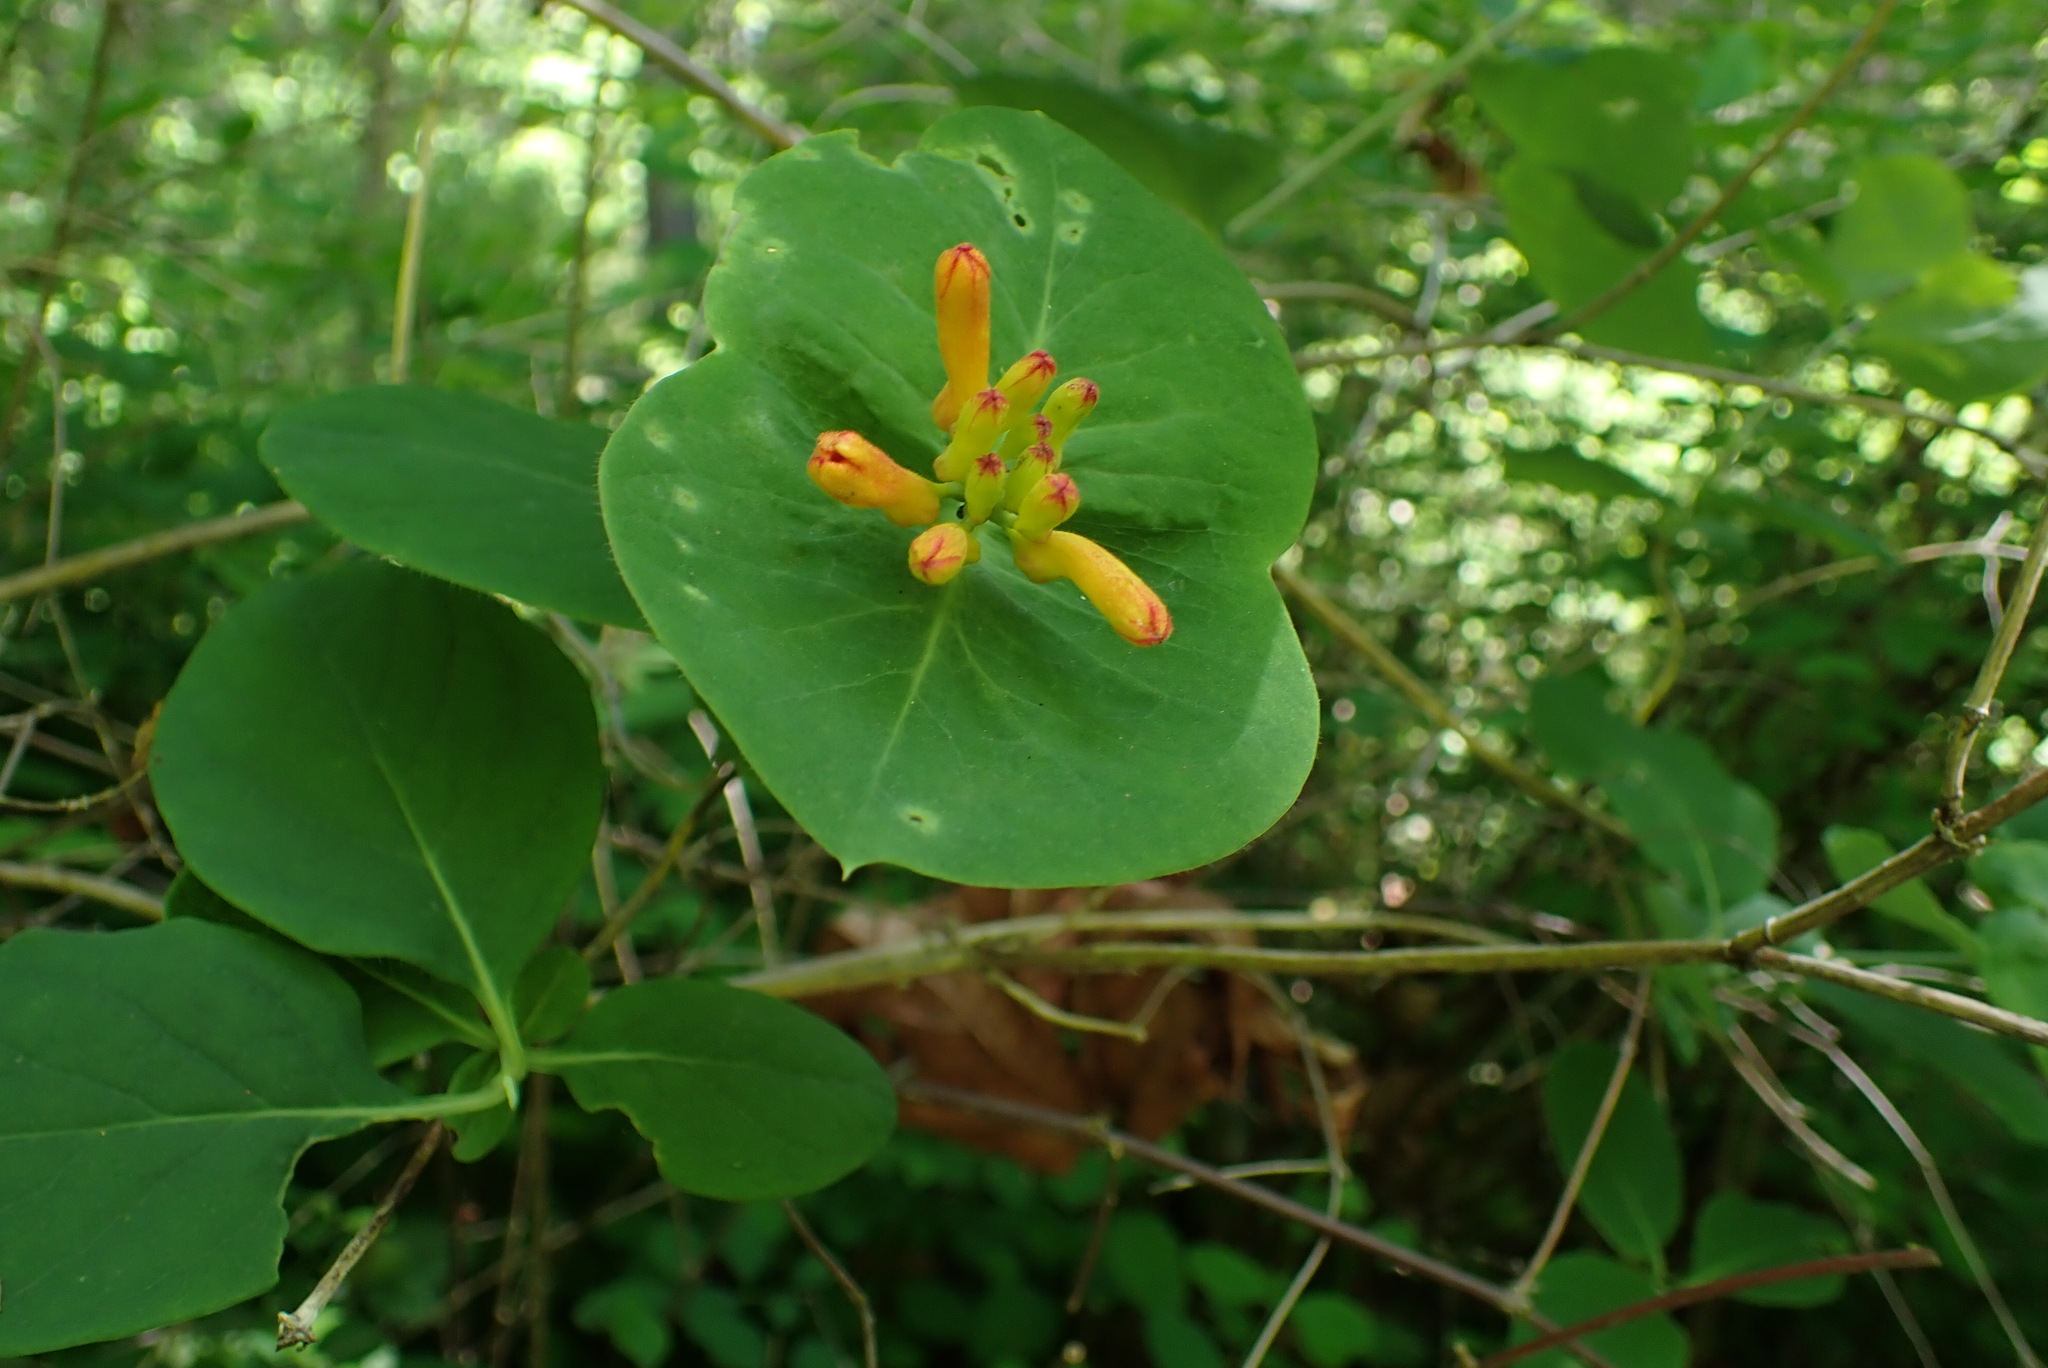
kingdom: Plantae
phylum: Tracheophyta
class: Magnoliopsida
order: Dipsacales
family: Caprifoliaceae
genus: Lonicera
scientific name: Lonicera ciliosa
